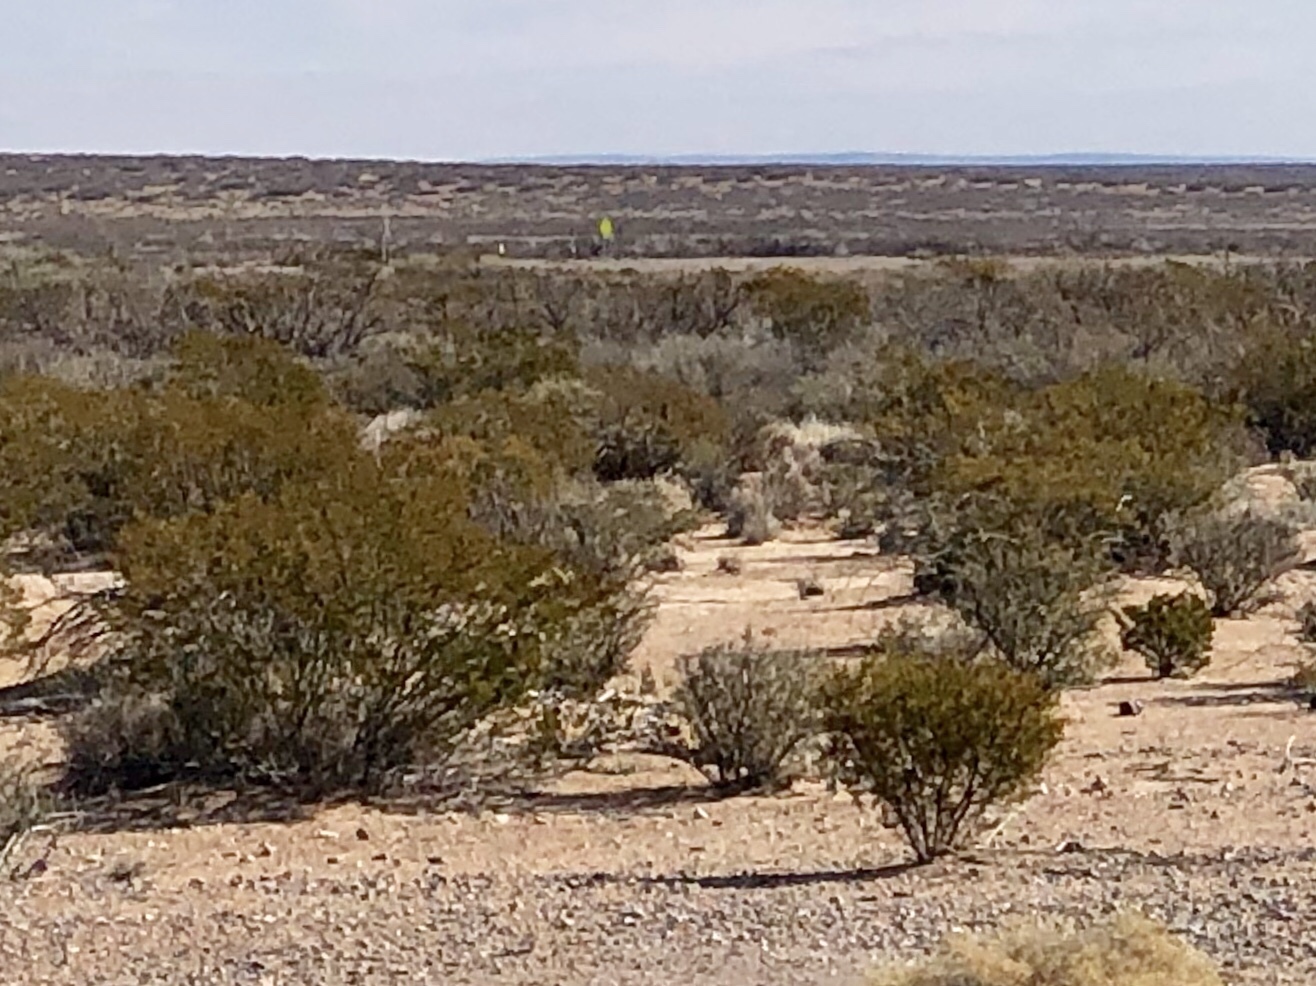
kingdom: Plantae
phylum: Tracheophyta
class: Magnoliopsida
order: Zygophyllales
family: Zygophyllaceae
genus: Larrea
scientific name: Larrea tridentata
